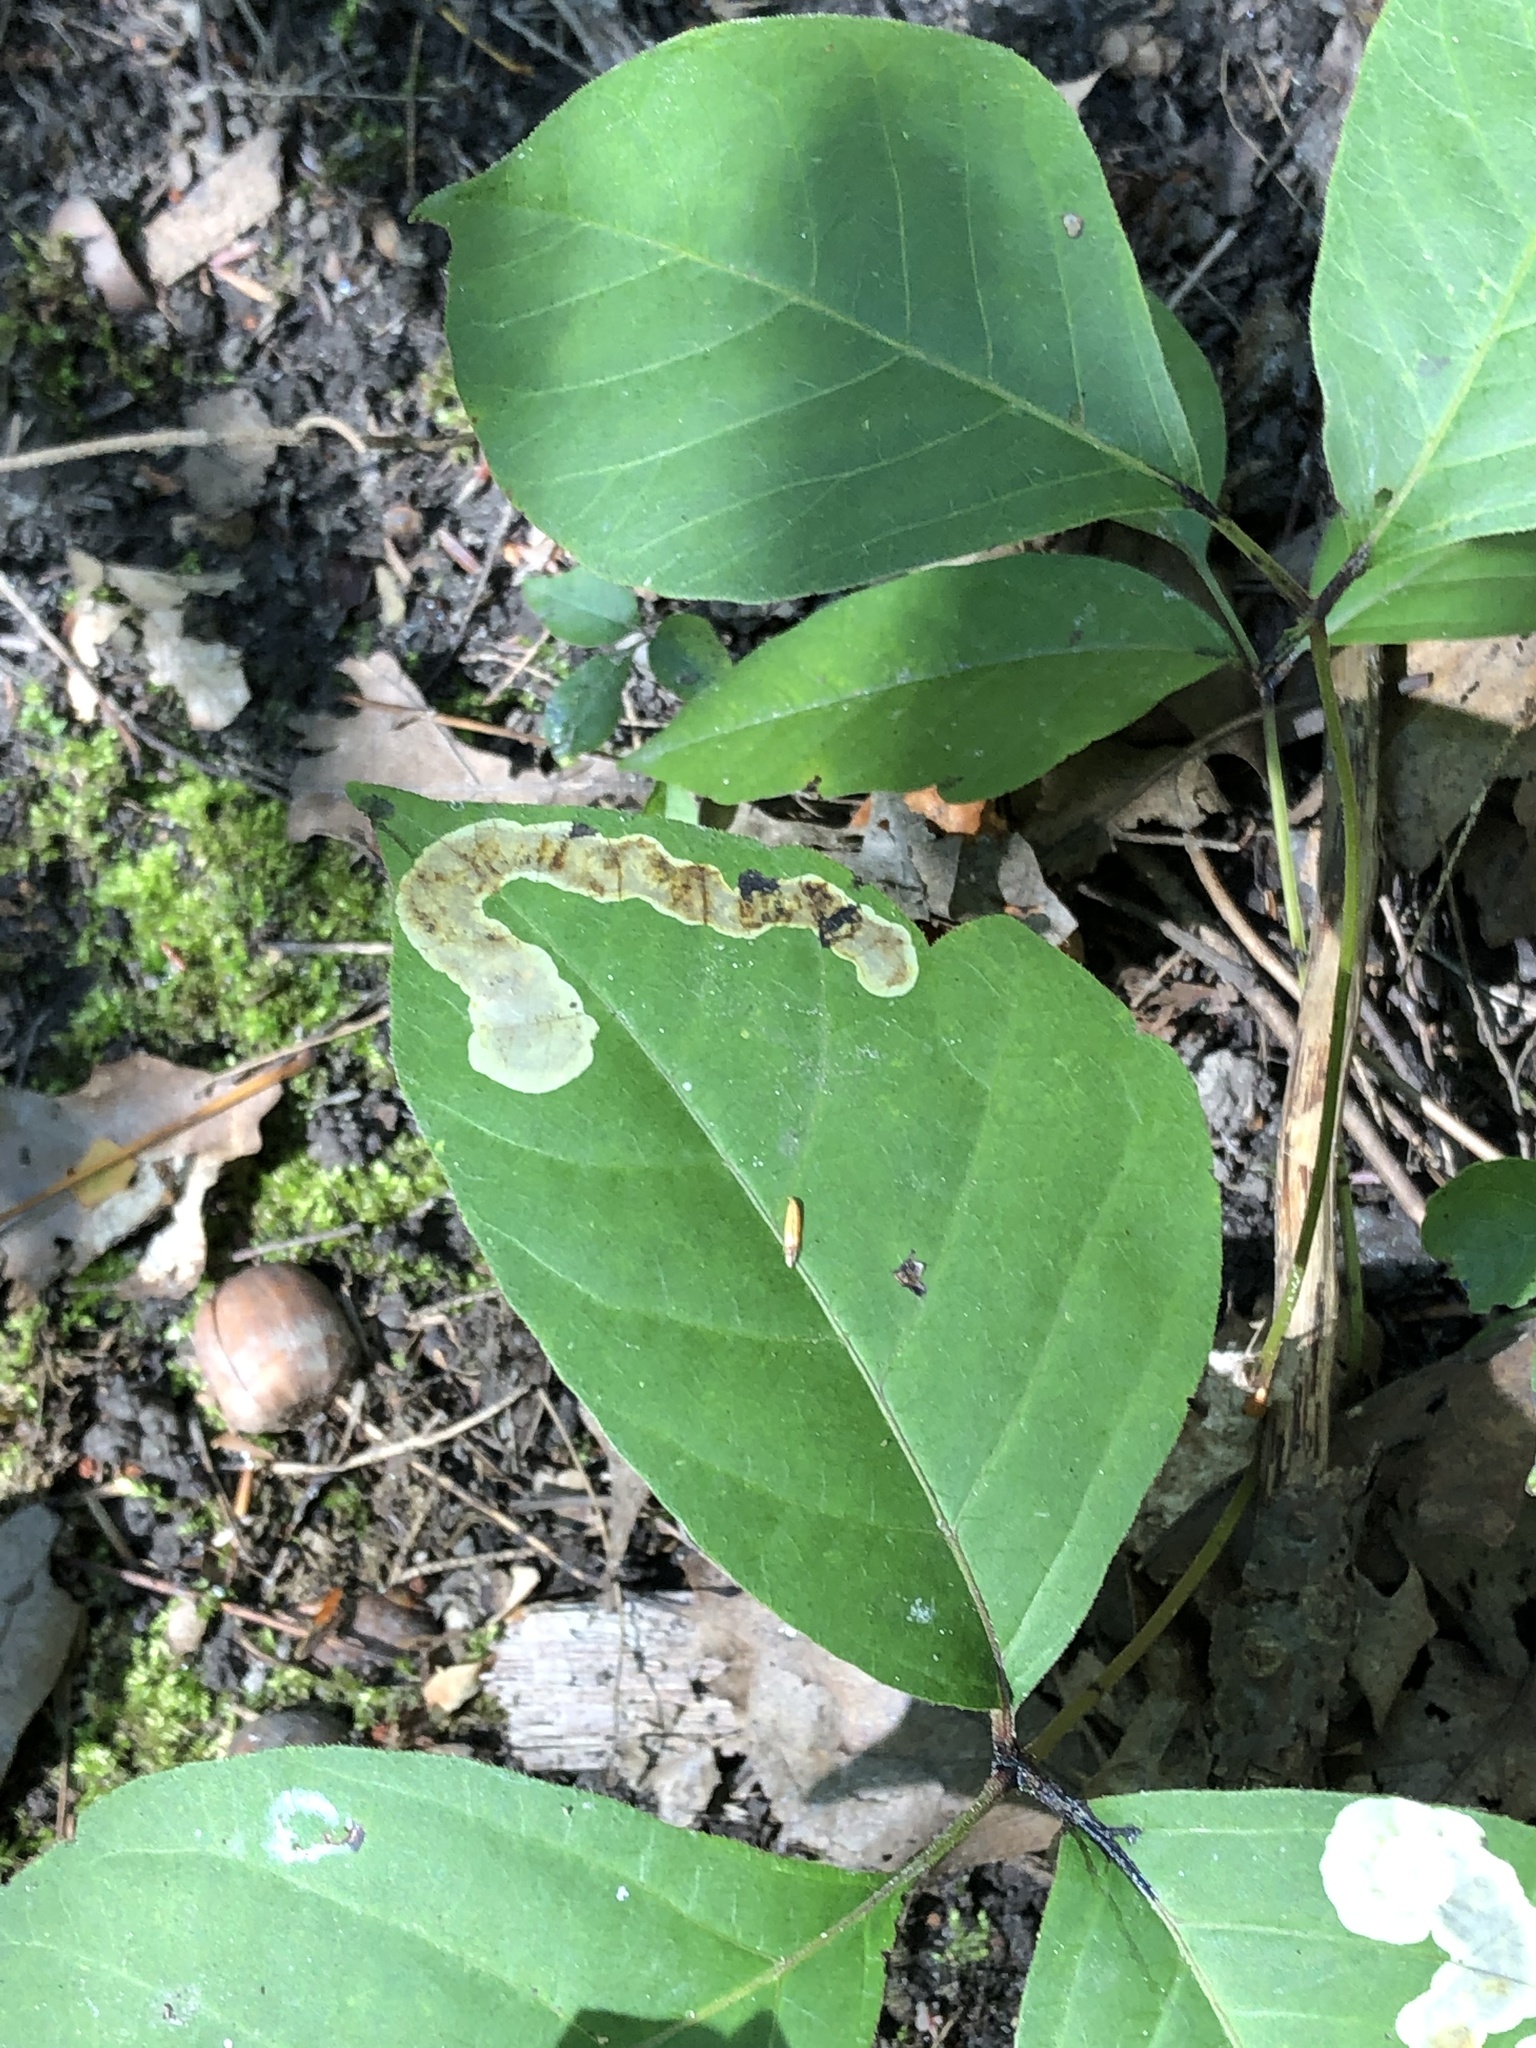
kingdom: Animalia
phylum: Arthropoda
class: Insecta
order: Lepidoptera
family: Gracillariidae
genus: Cameraria
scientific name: Cameraria guttifinitella
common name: Poison ivy leaf-miner moth
